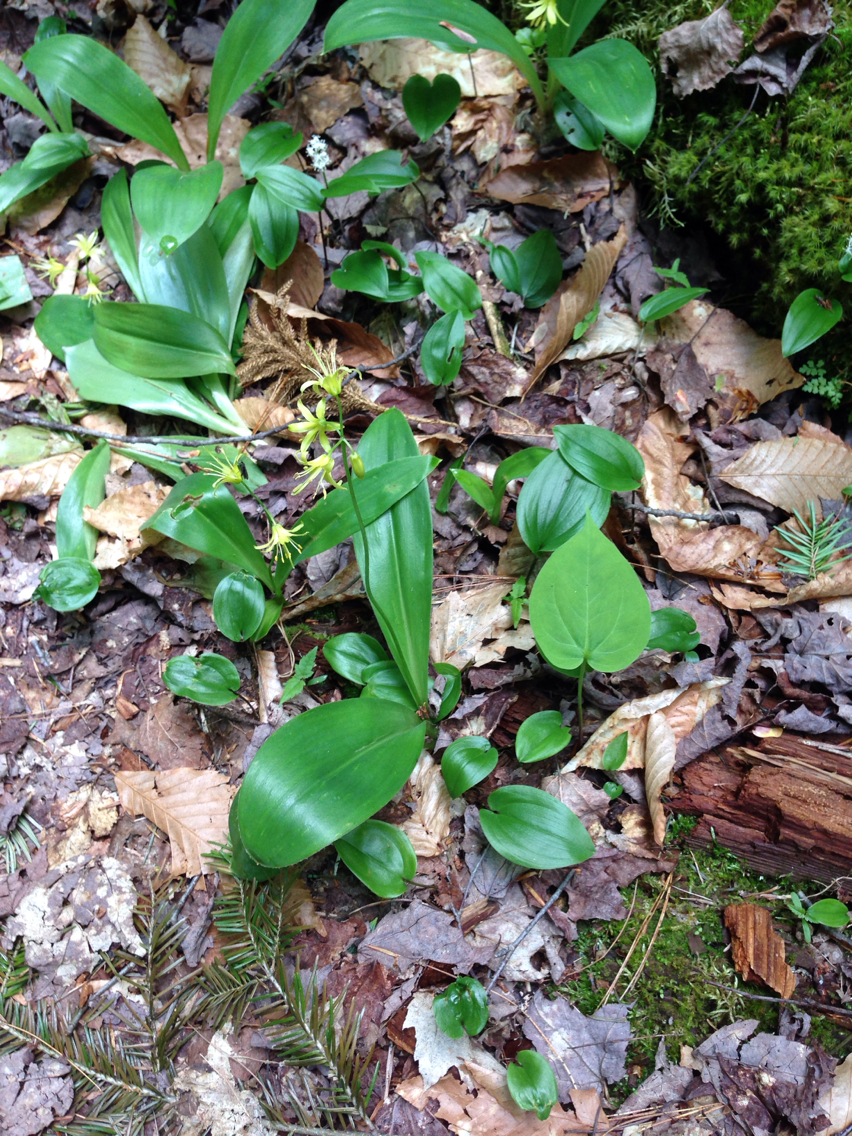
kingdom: Plantae
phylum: Tracheophyta
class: Liliopsida
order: Liliales
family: Liliaceae
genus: Clintonia
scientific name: Clintonia borealis
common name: Yellow clintonia
